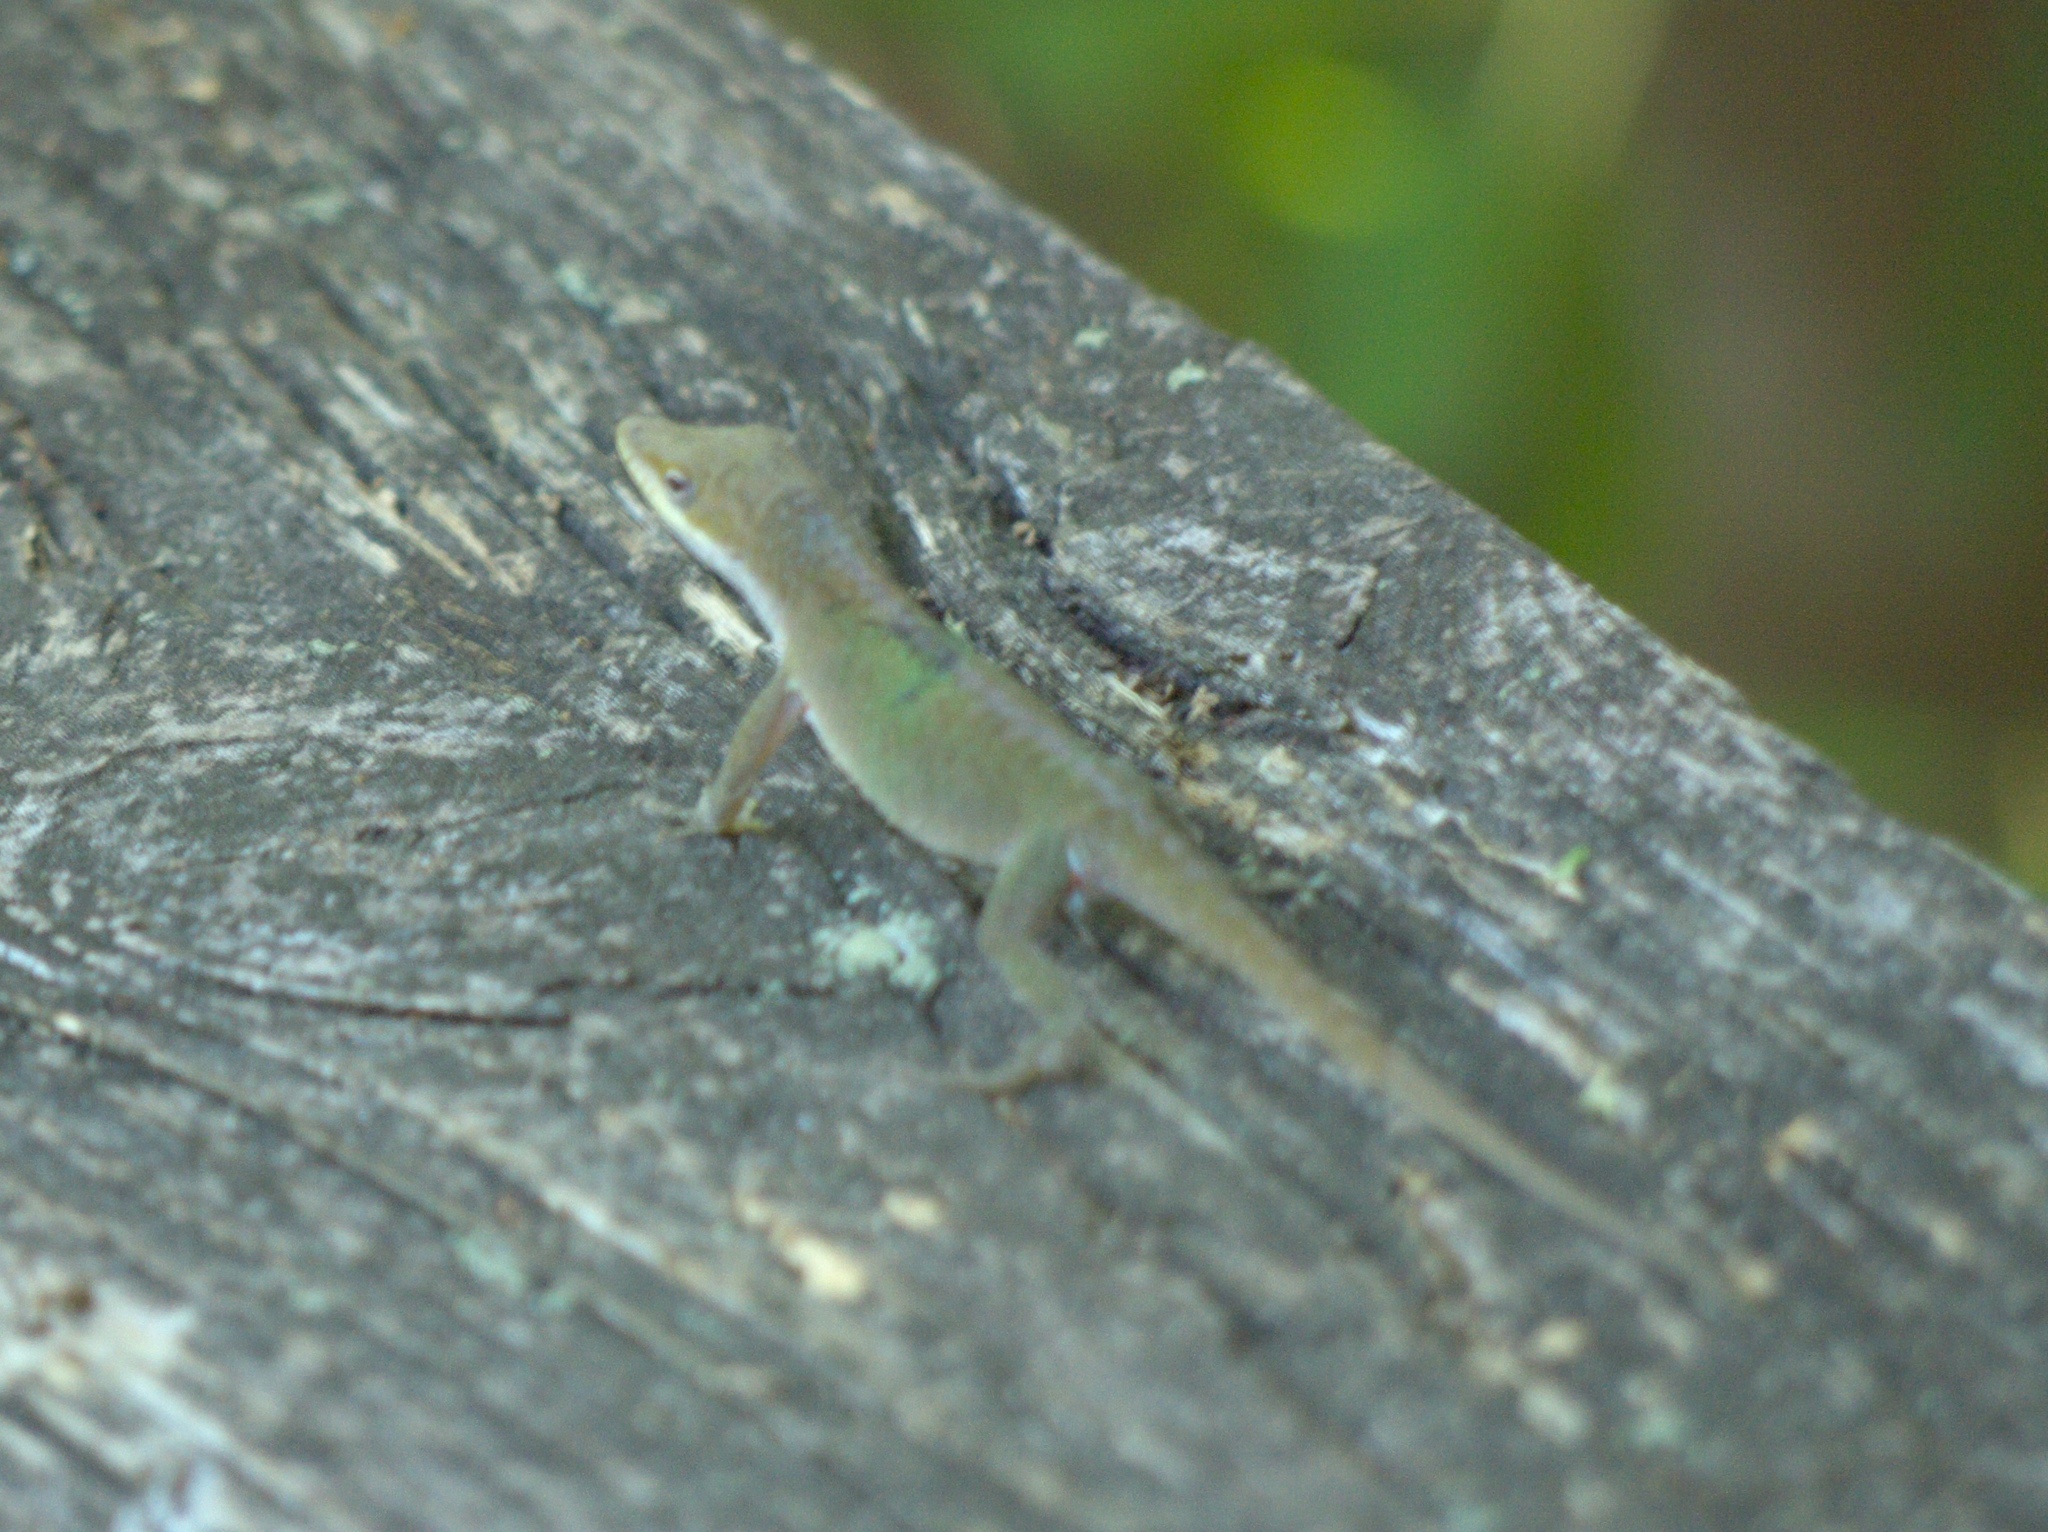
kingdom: Animalia
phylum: Chordata
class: Squamata
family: Dactyloidae
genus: Anolis
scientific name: Anolis carolinensis
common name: Green anole
